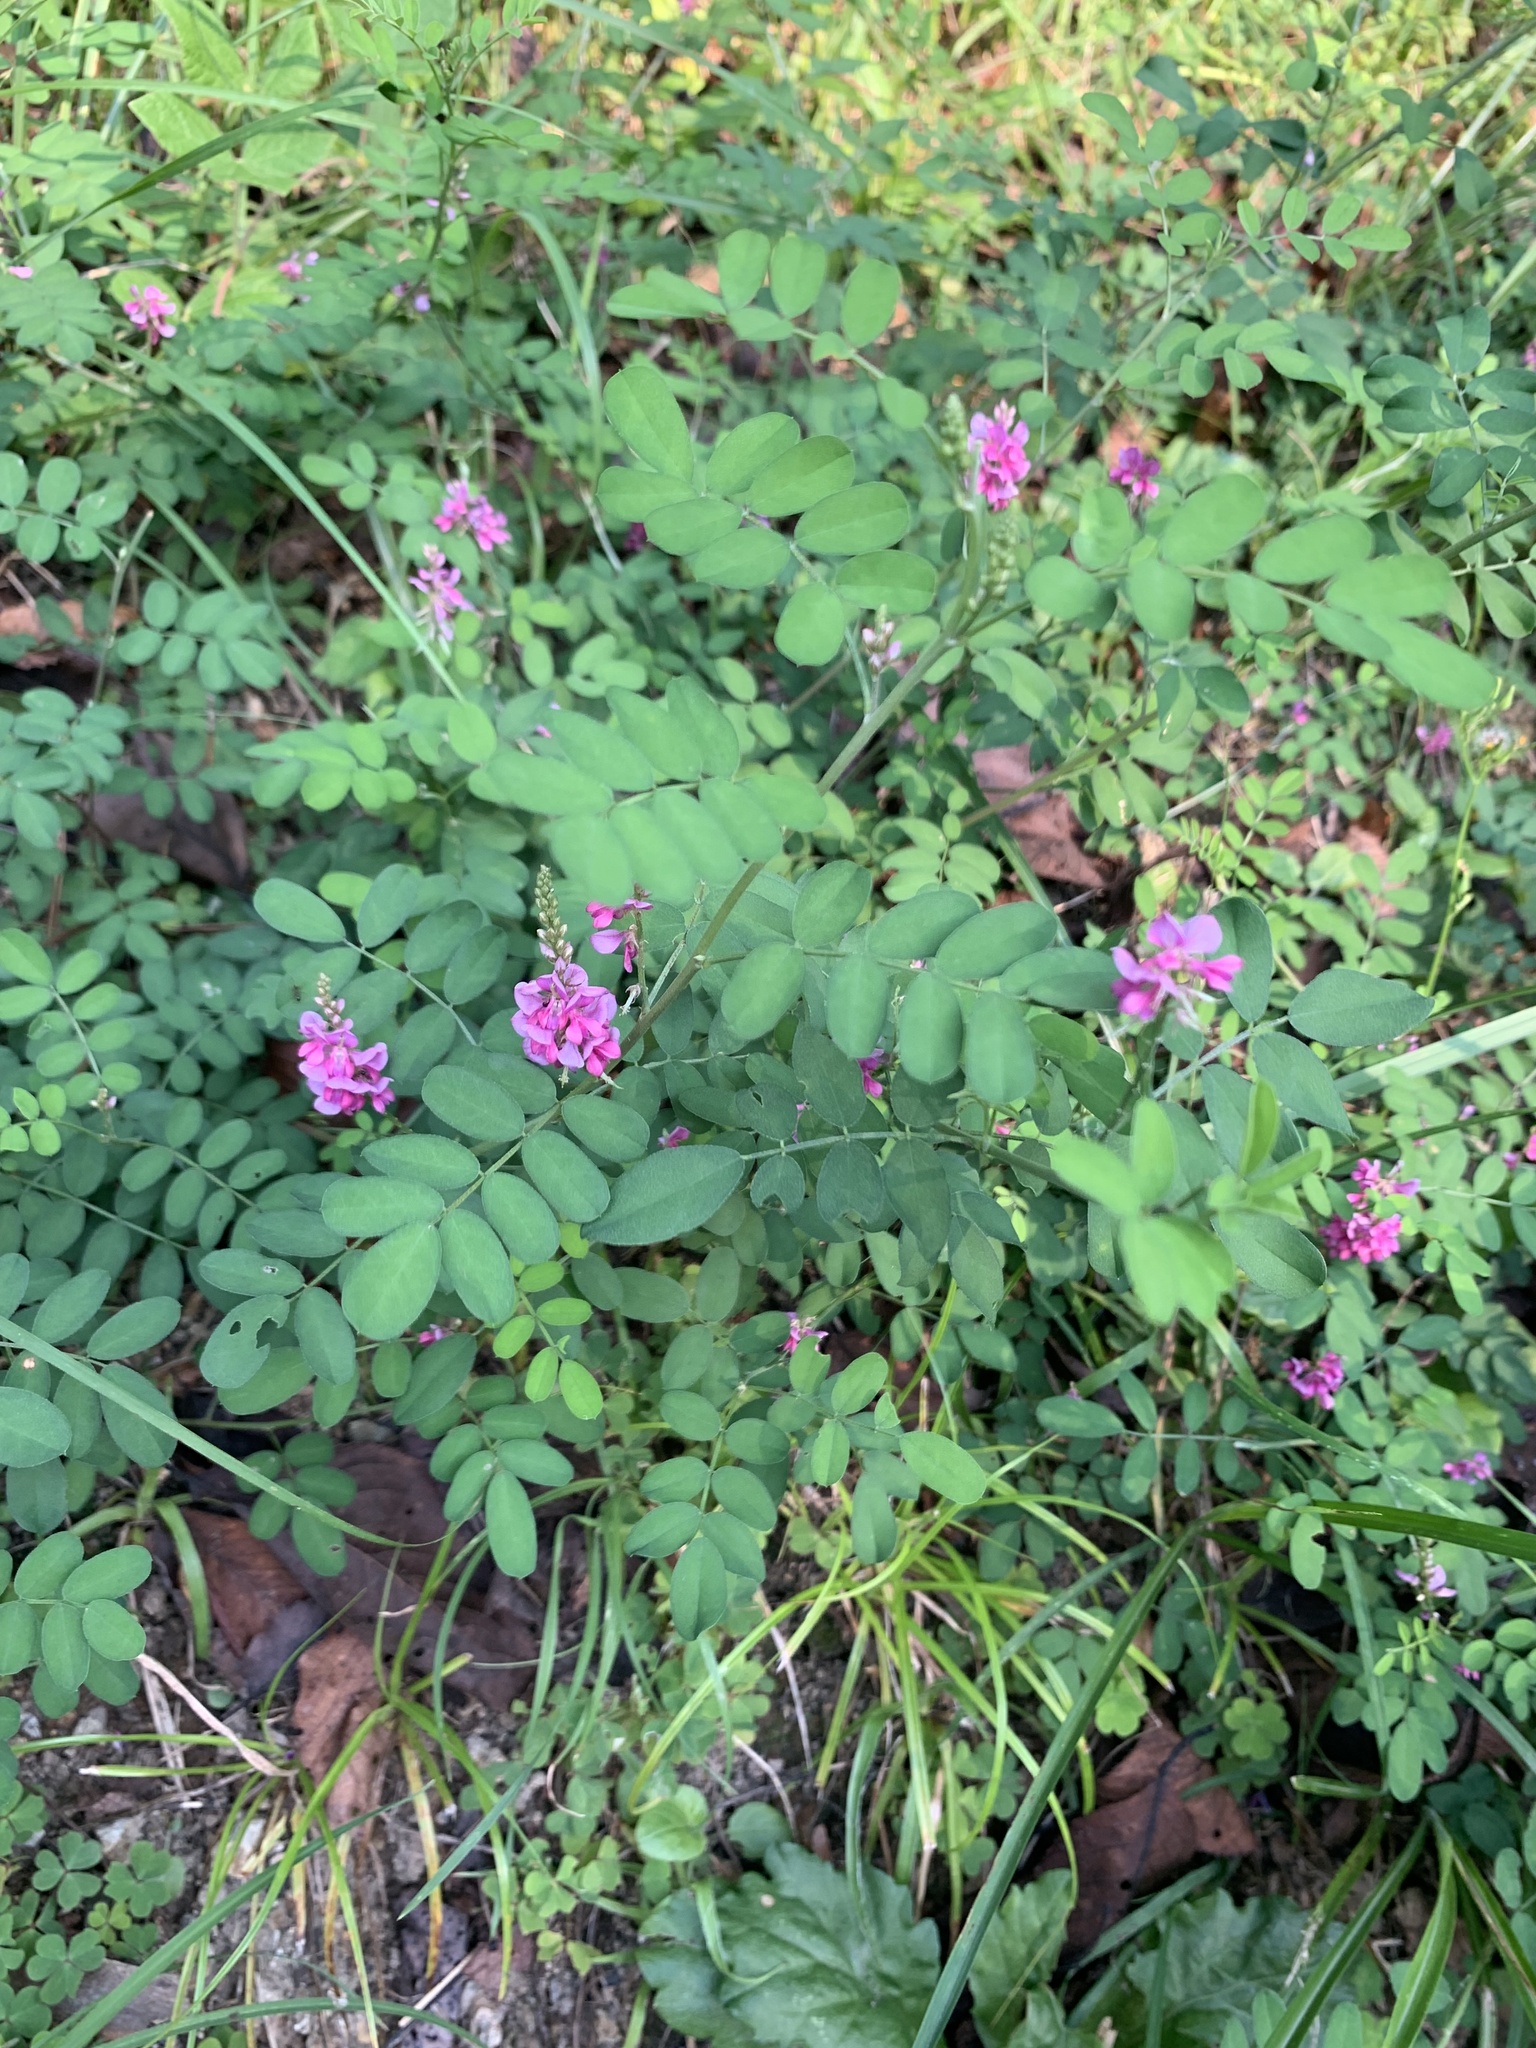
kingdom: Plantae
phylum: Tracheophyta
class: Magnoliopsida
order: Fabales
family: Fabaceae
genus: Indigofera
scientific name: Indigofera bungeana
